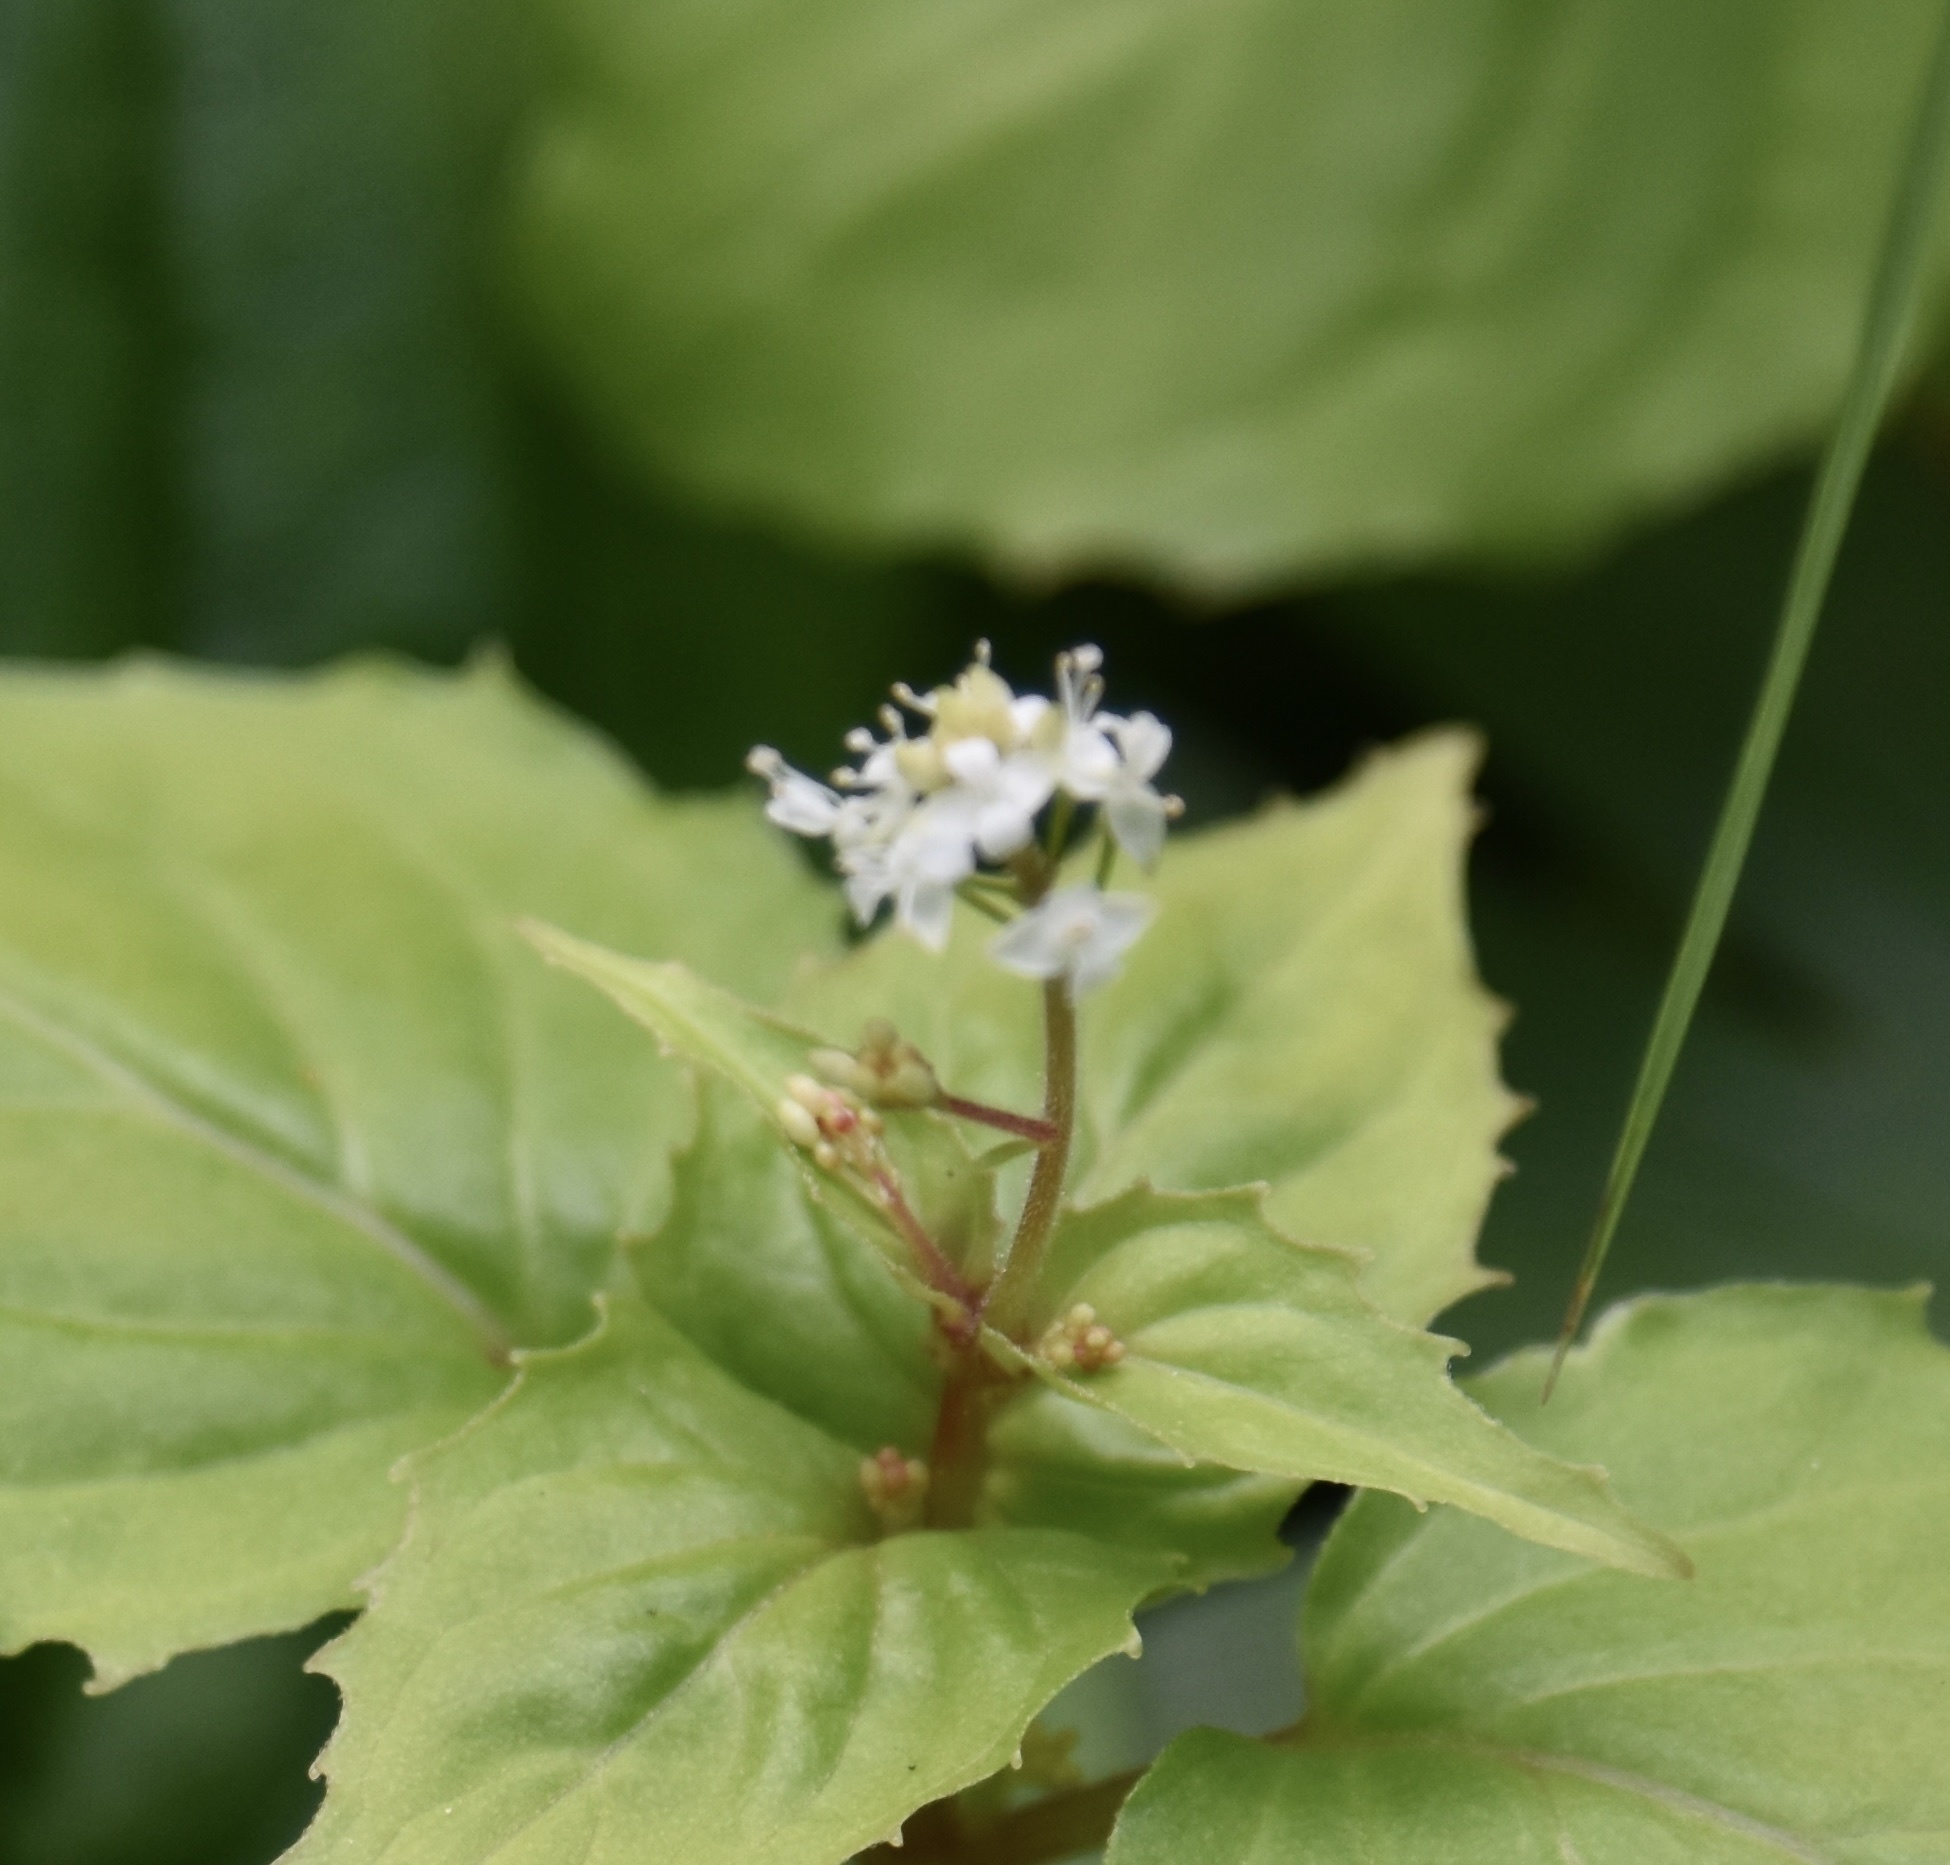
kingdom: Plantae
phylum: Tracheophyta
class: Magnoliopsida
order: Myrtales
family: Onagraceae
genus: Circaea
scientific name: Circaea alpina
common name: Alpine enchanter's-nightshade
